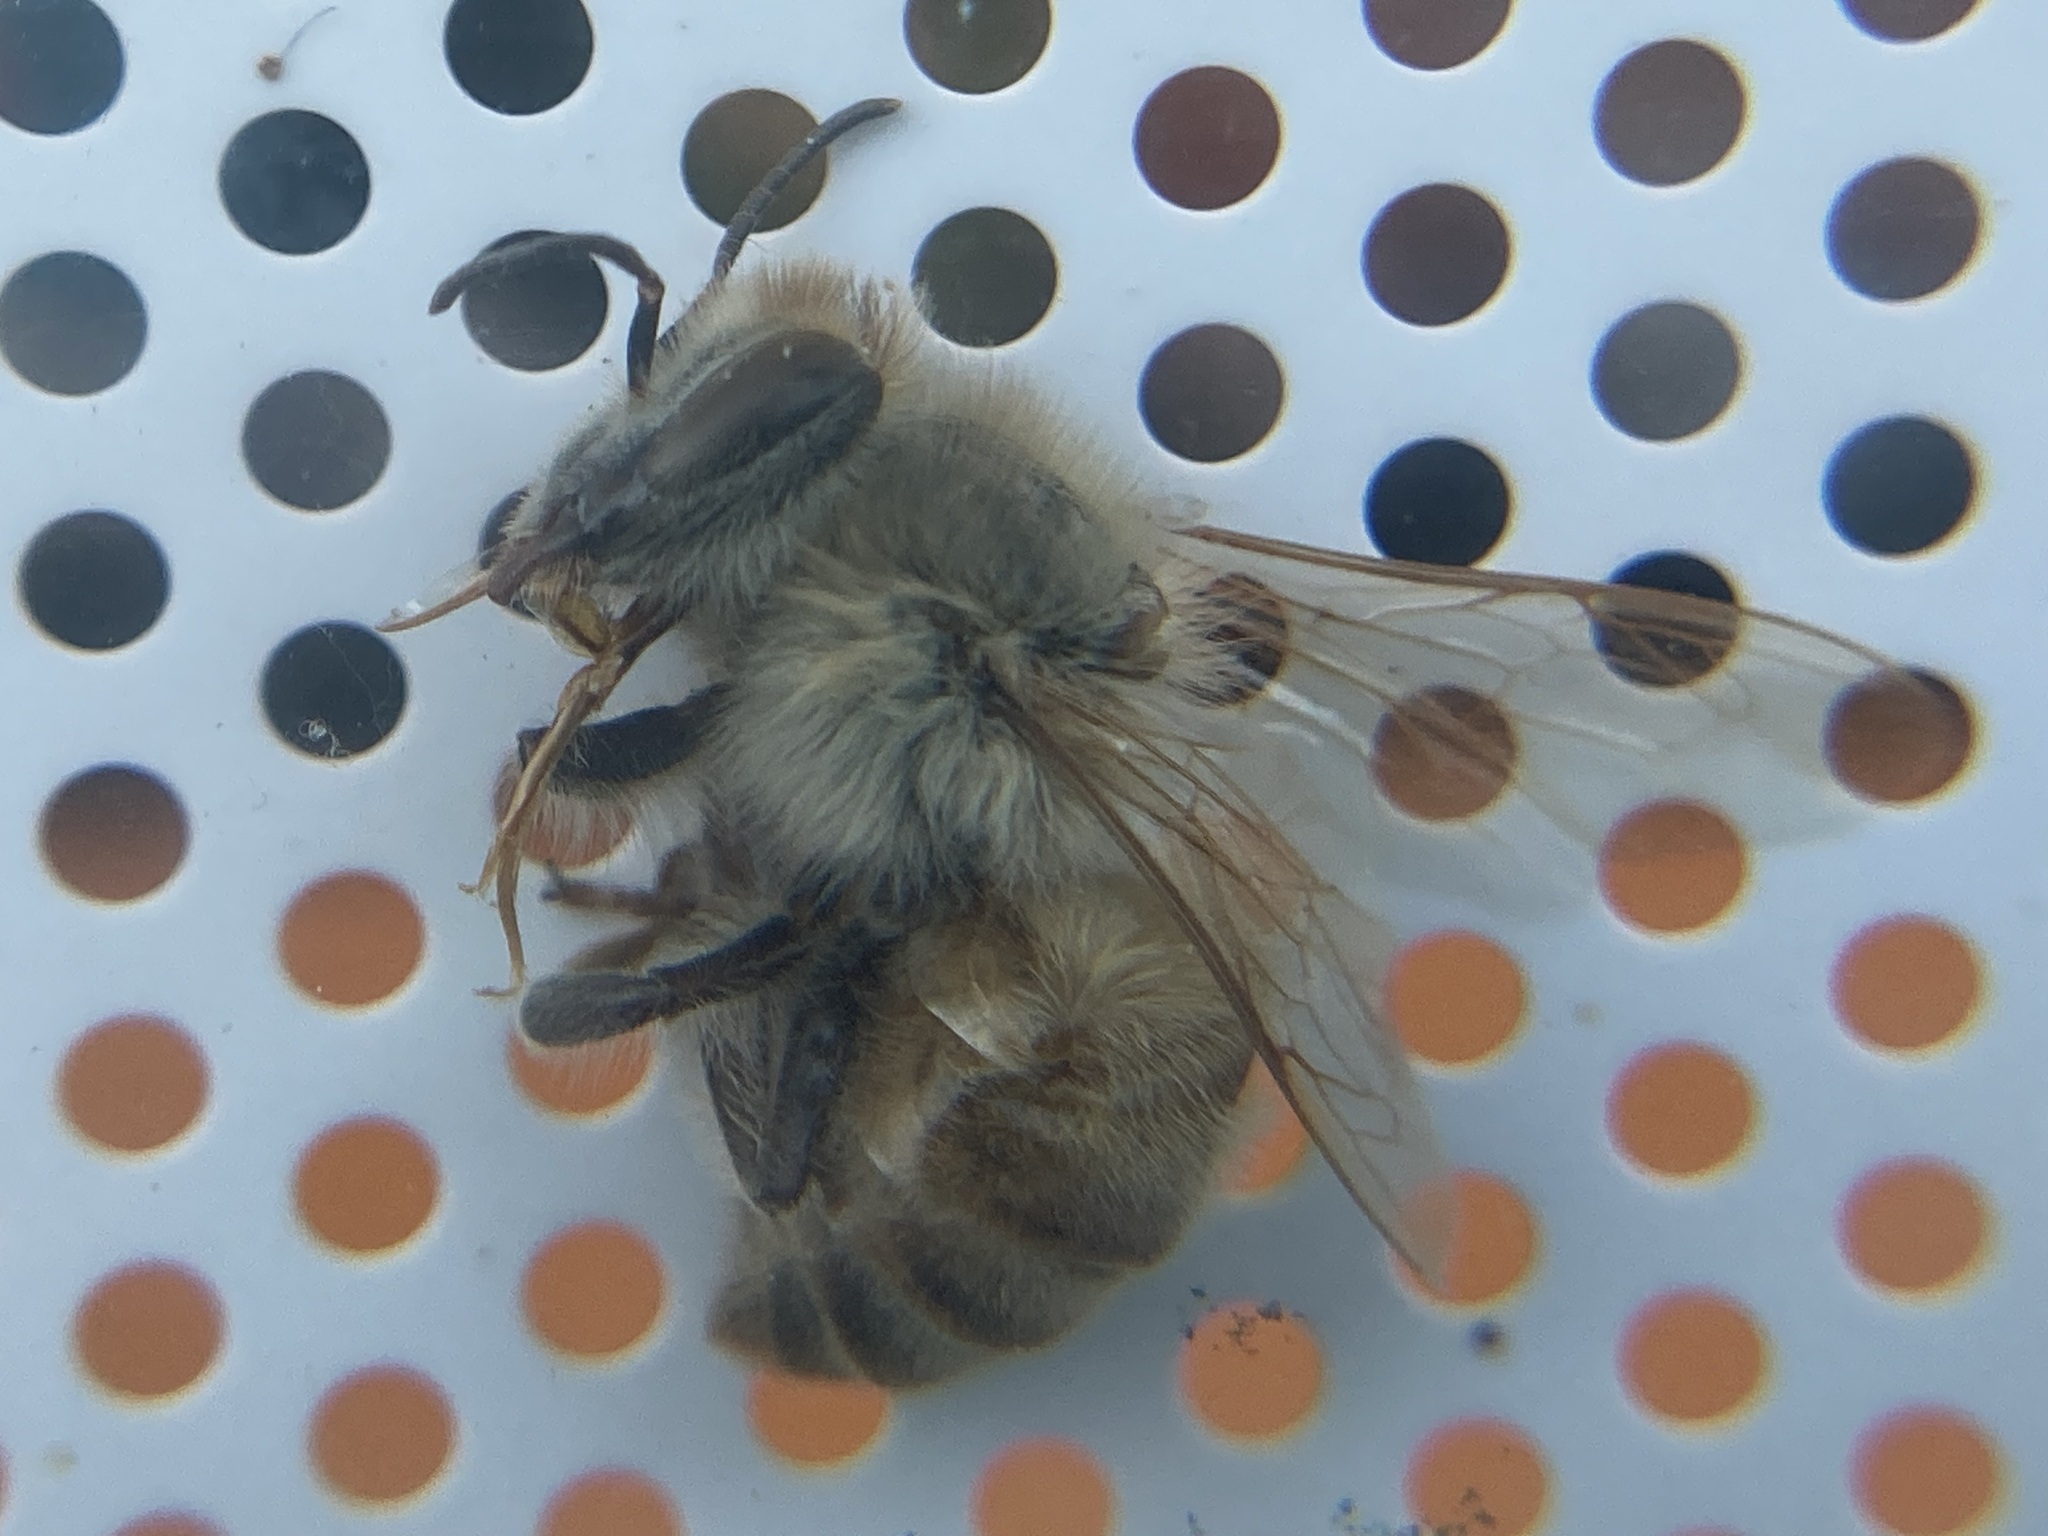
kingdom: Animalia
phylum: Arthropoda
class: Insecta
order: Hymenoptera
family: Apidae
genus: Apis
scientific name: Apis mellifera
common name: Honey bee
